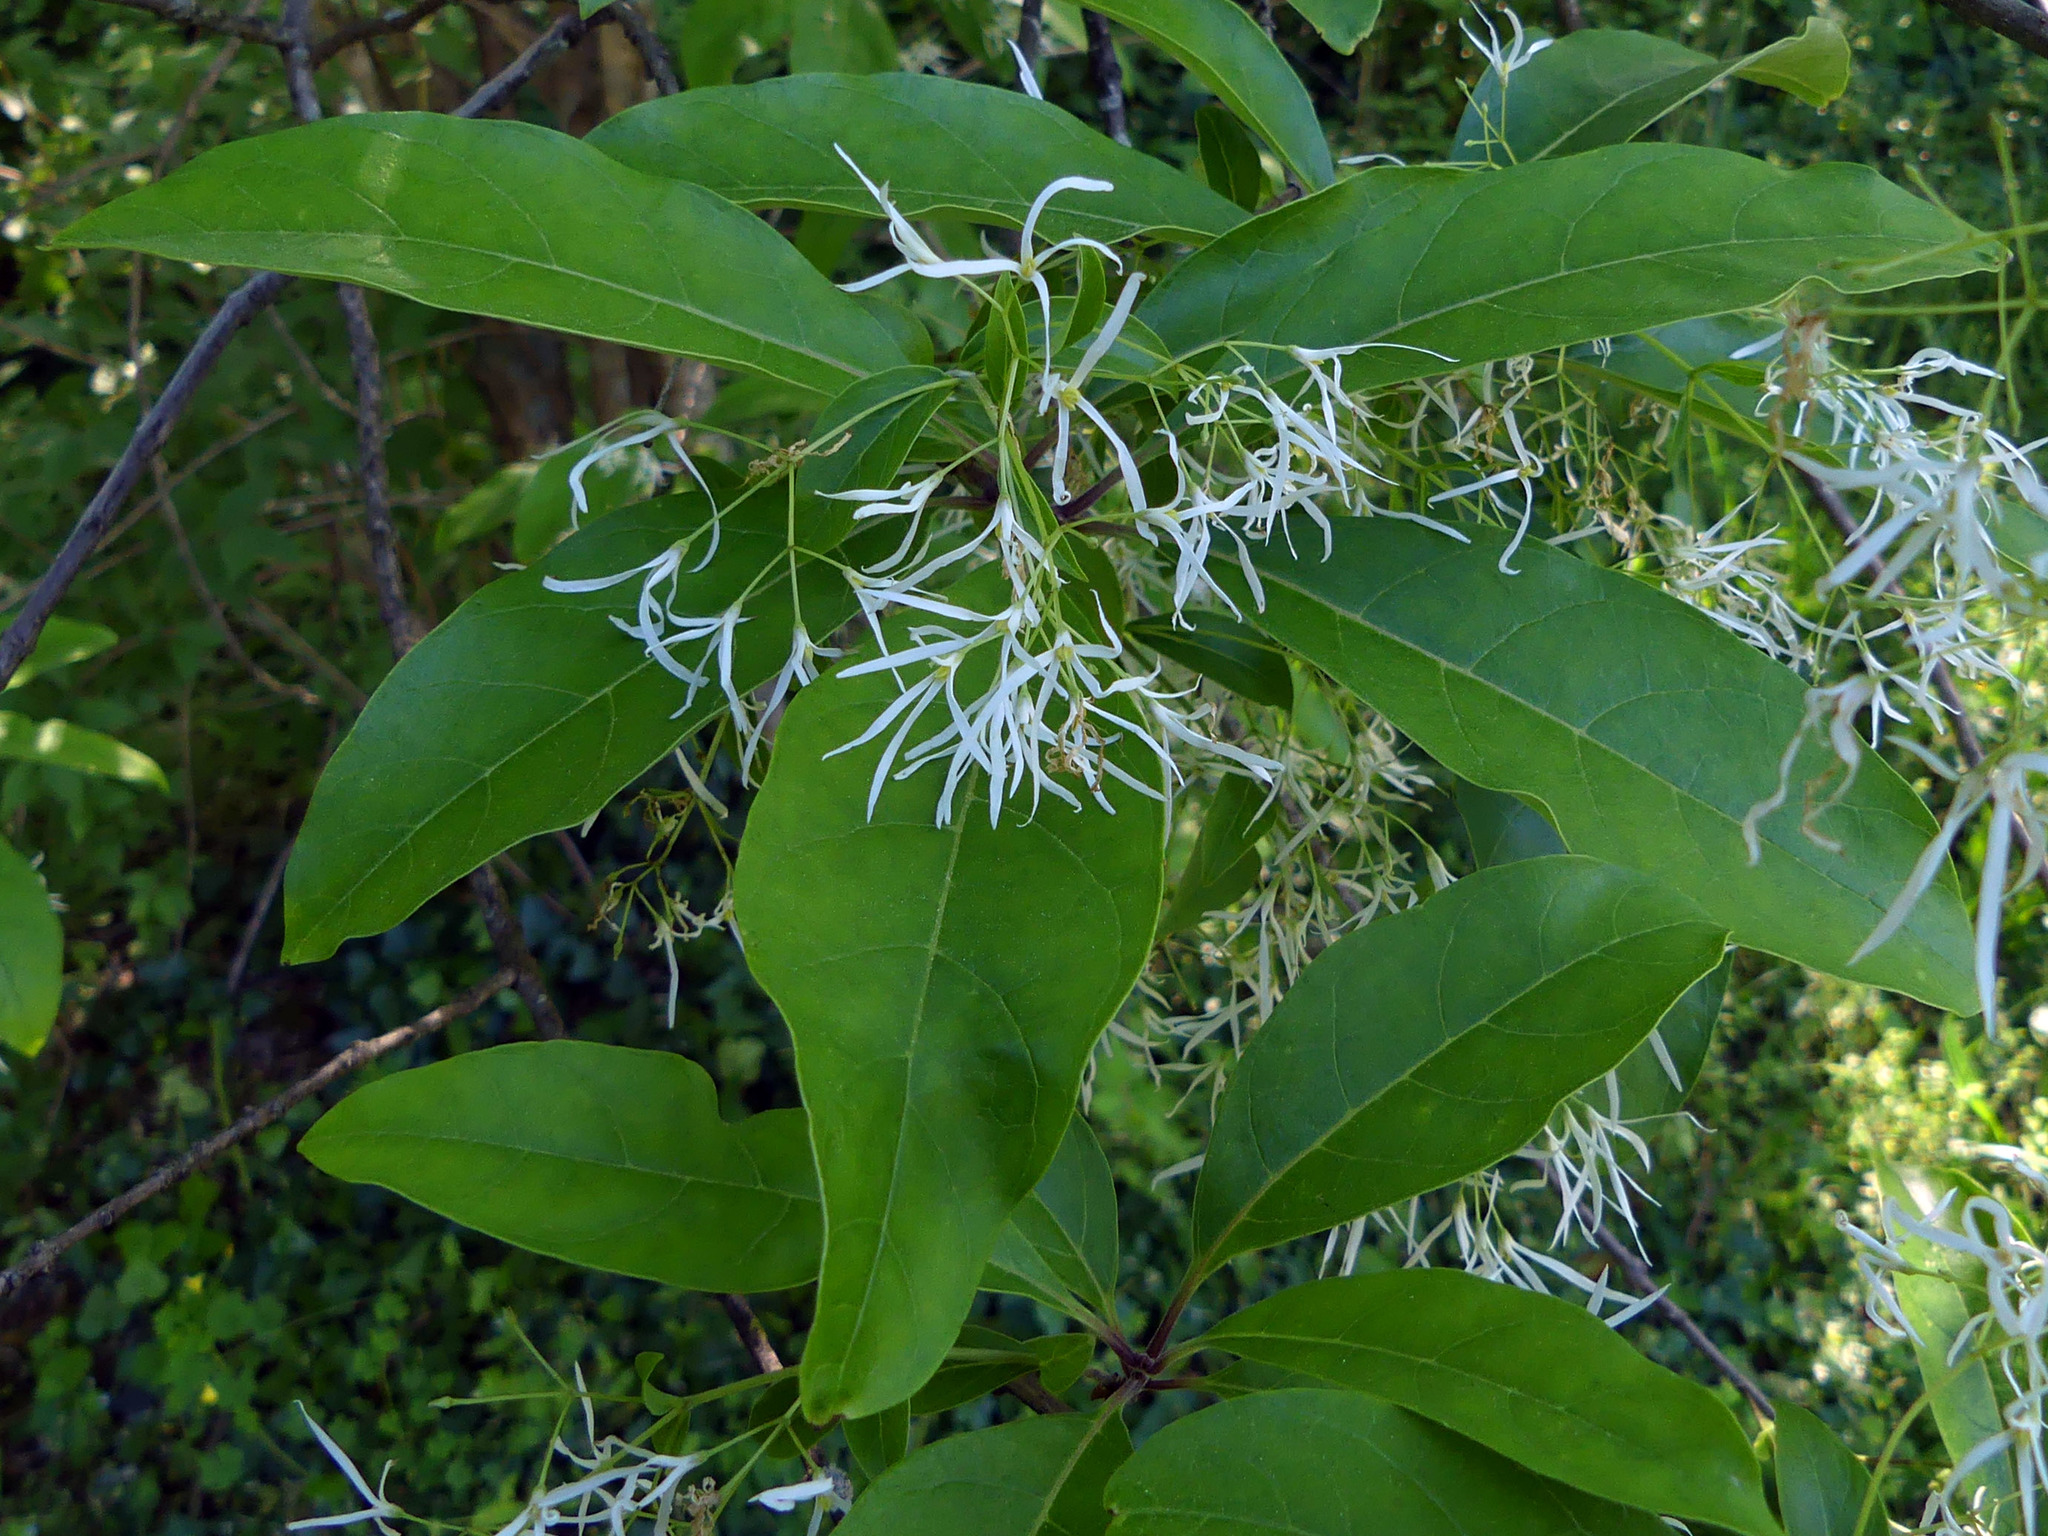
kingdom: Plantae
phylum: Tracheophyta
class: Magnoliopsida
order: Lamiales
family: Oleaceae
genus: Chionanthus
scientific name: Chionanthus virginicus
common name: American fringetree
